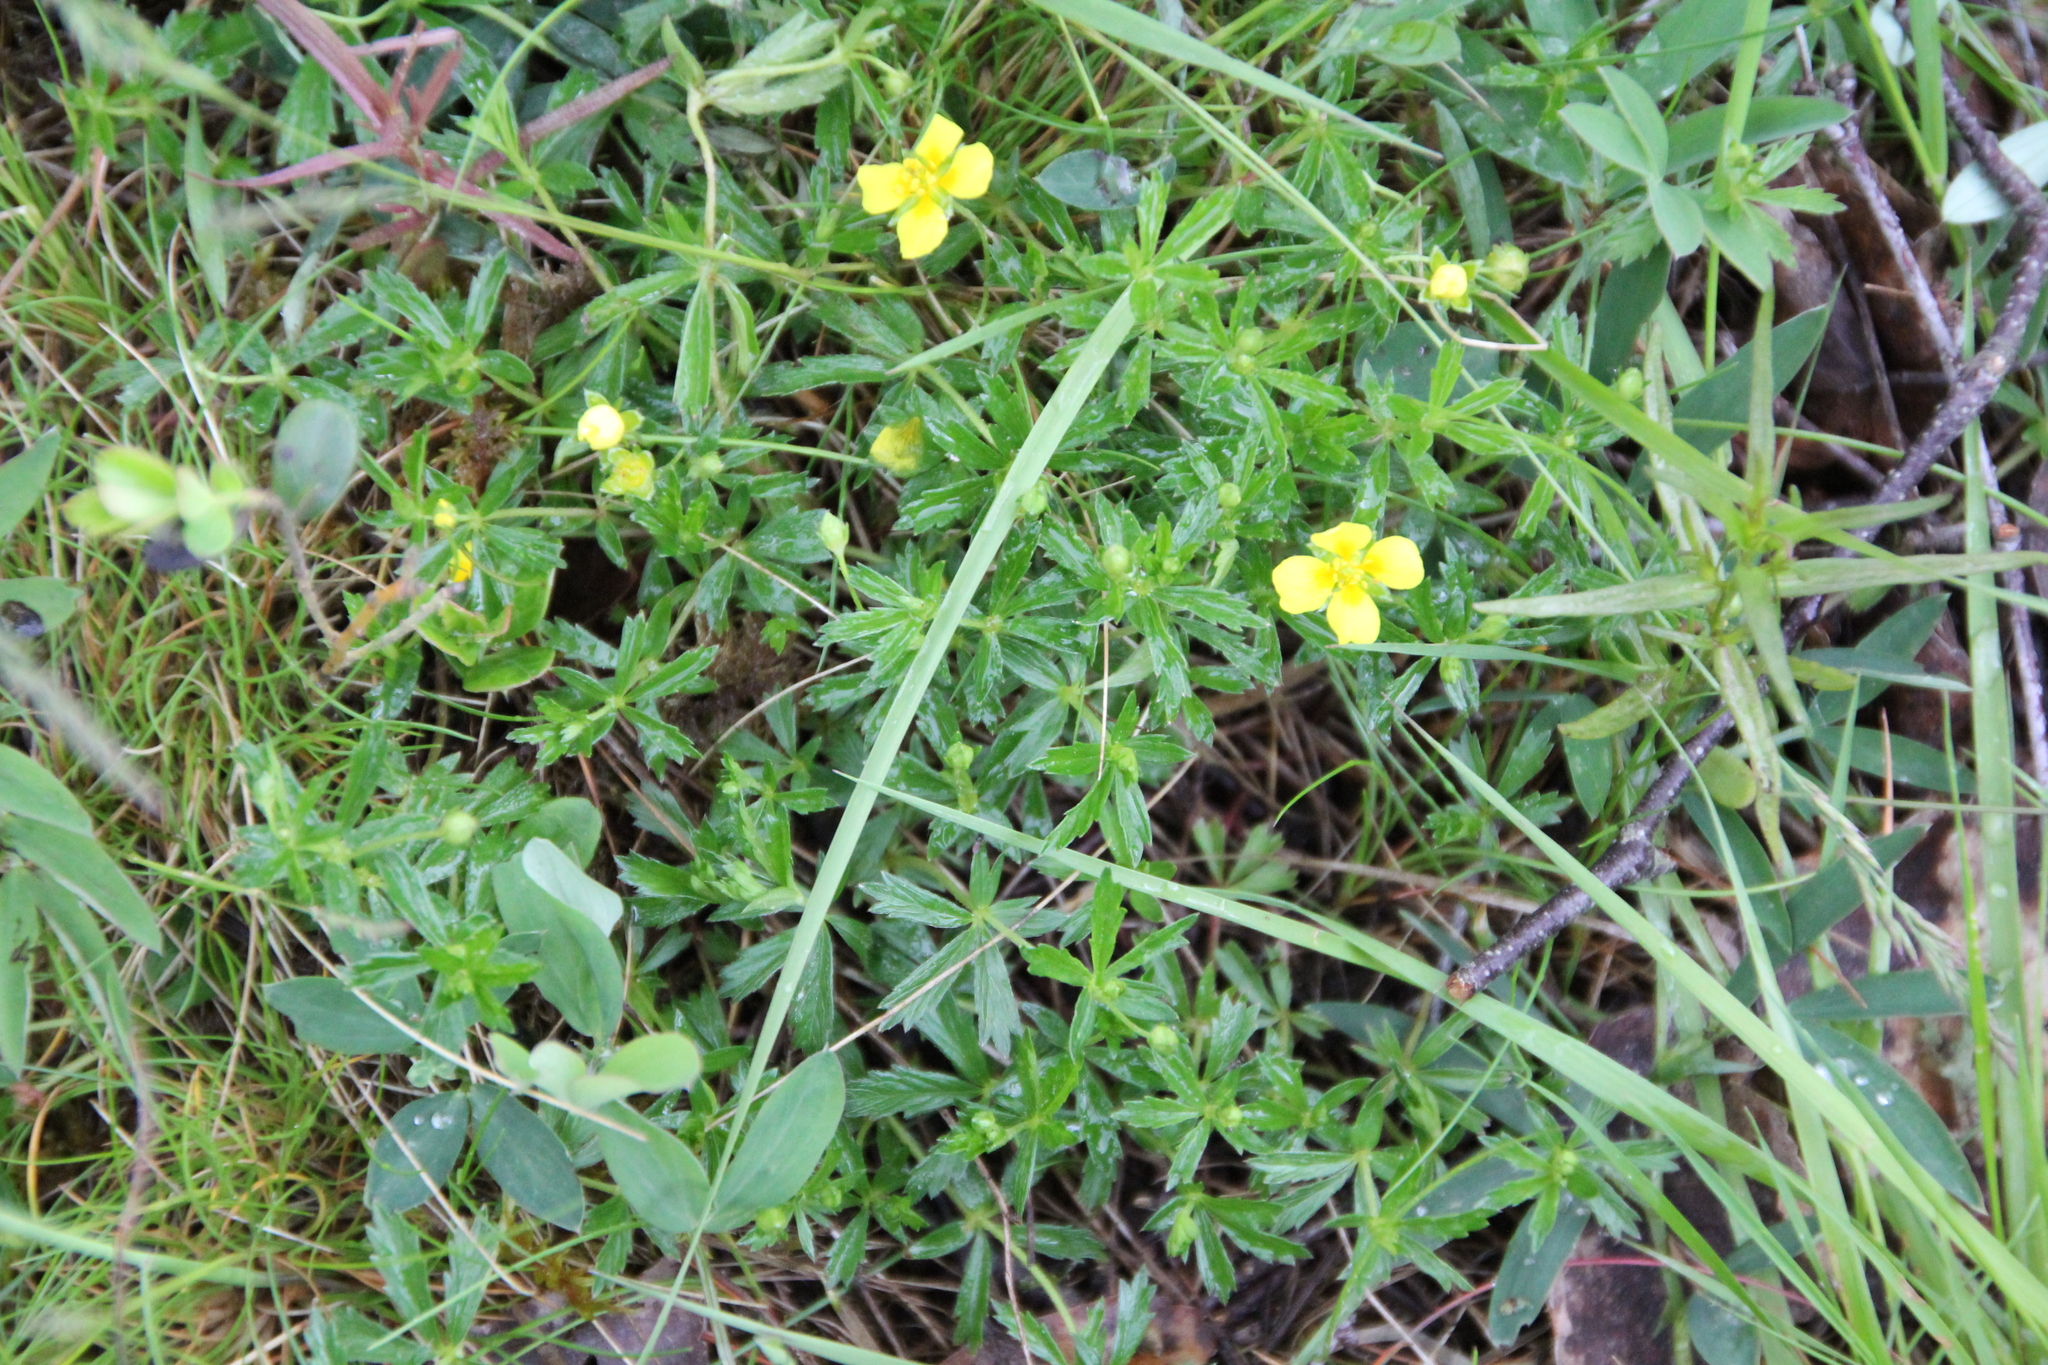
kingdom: Plantae
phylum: Tracheophyta
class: Magnoliopsida
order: Rosales
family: Rosaceae
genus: Potentilla
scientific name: Potentilla erecta
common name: Tormentil
